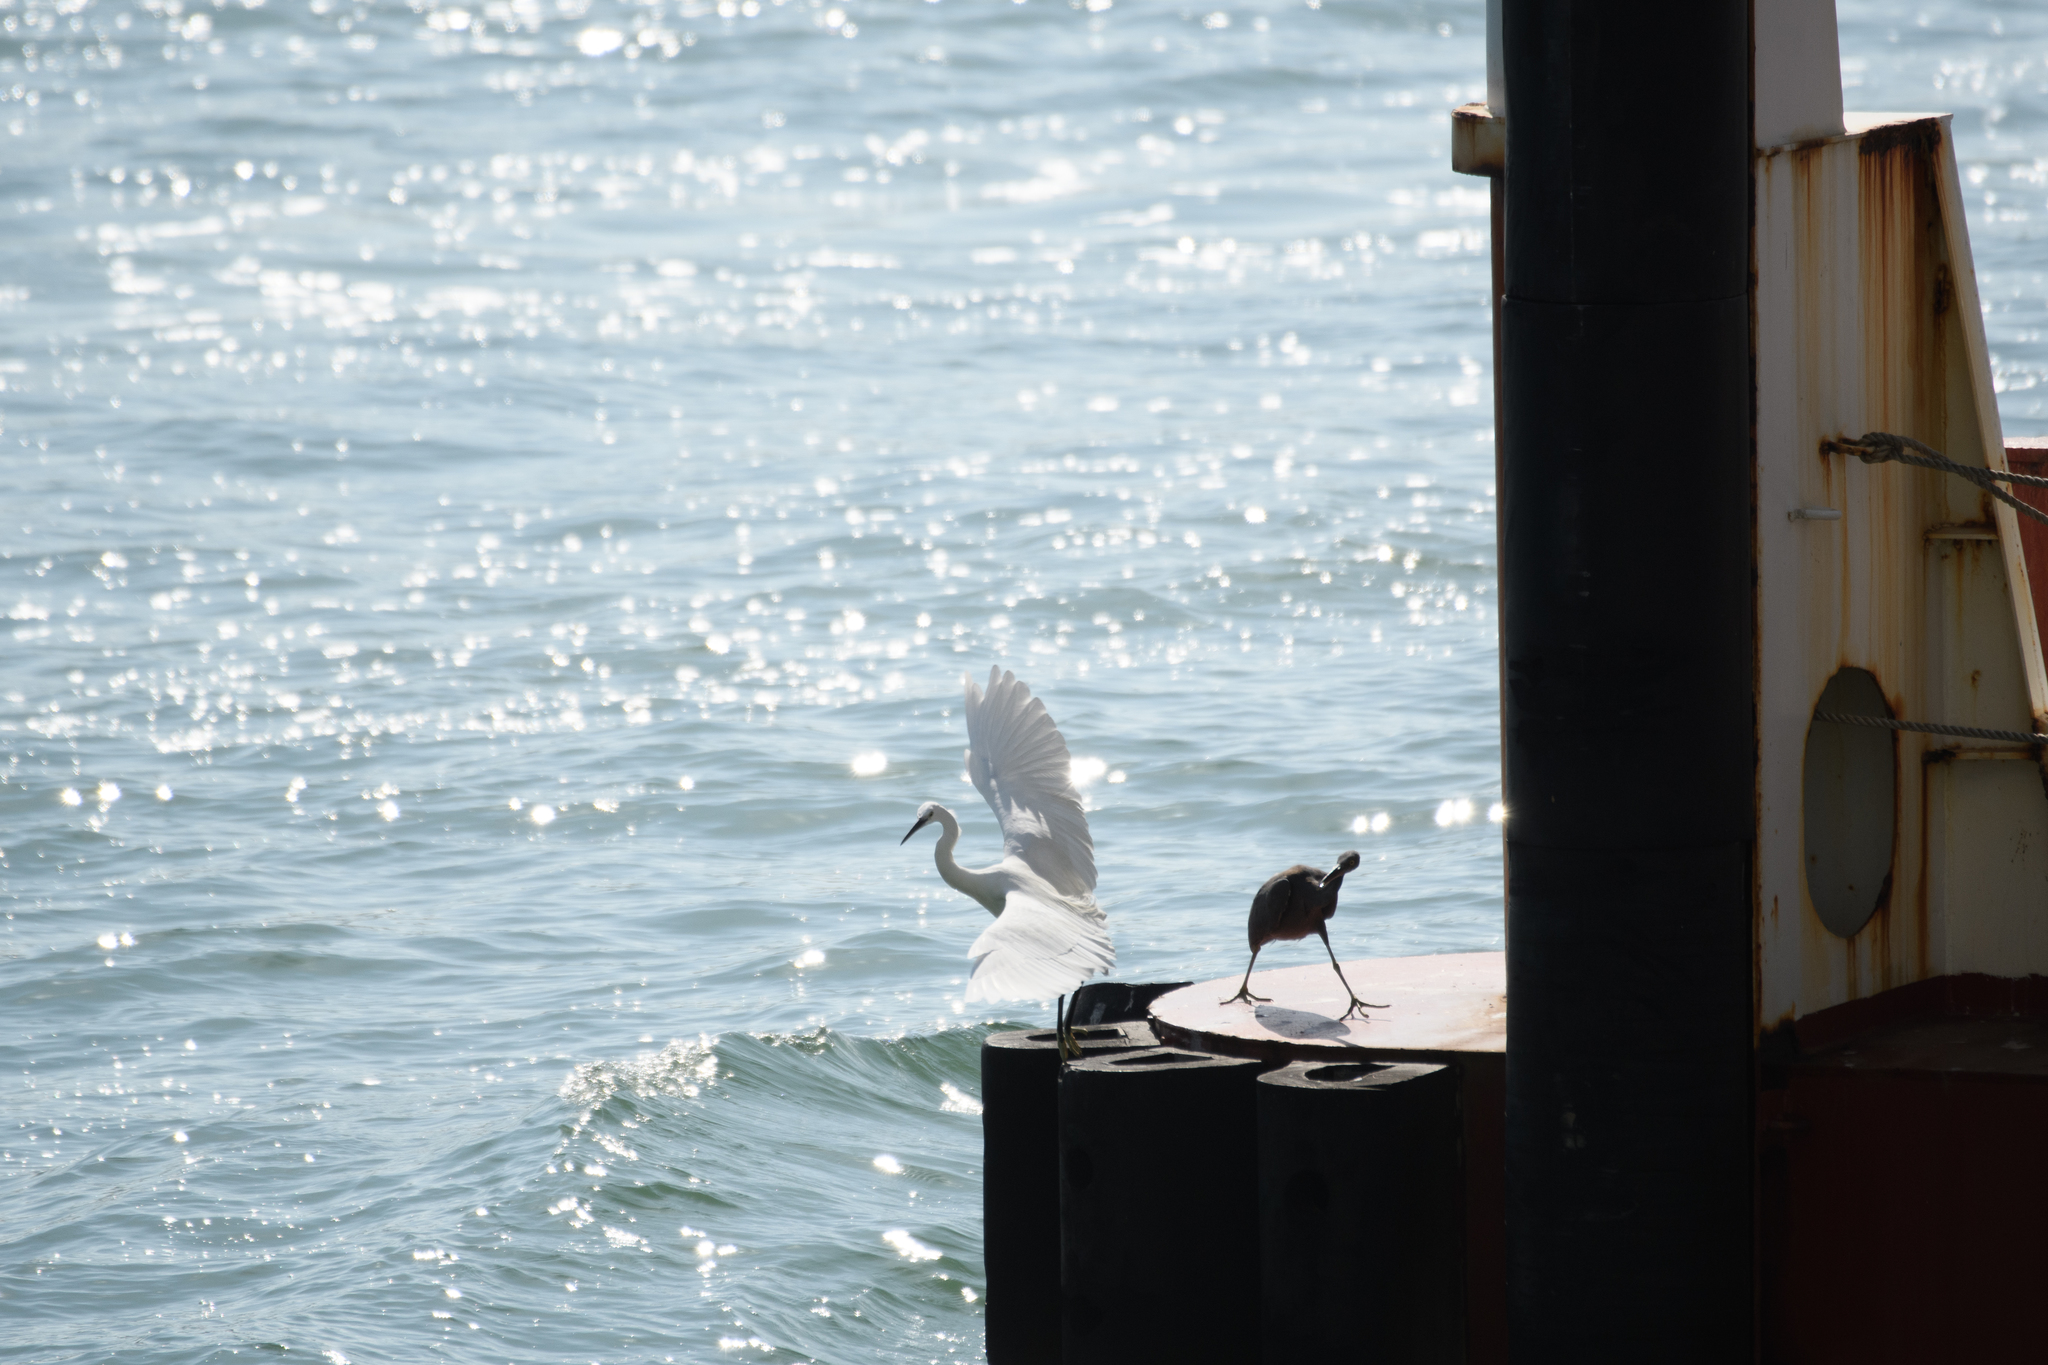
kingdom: Animalia
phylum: Chordata
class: Aves
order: Pelecaniformes
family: Ardeidae
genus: Egretta
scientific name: Egretta sacra
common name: Pacific reef heron
